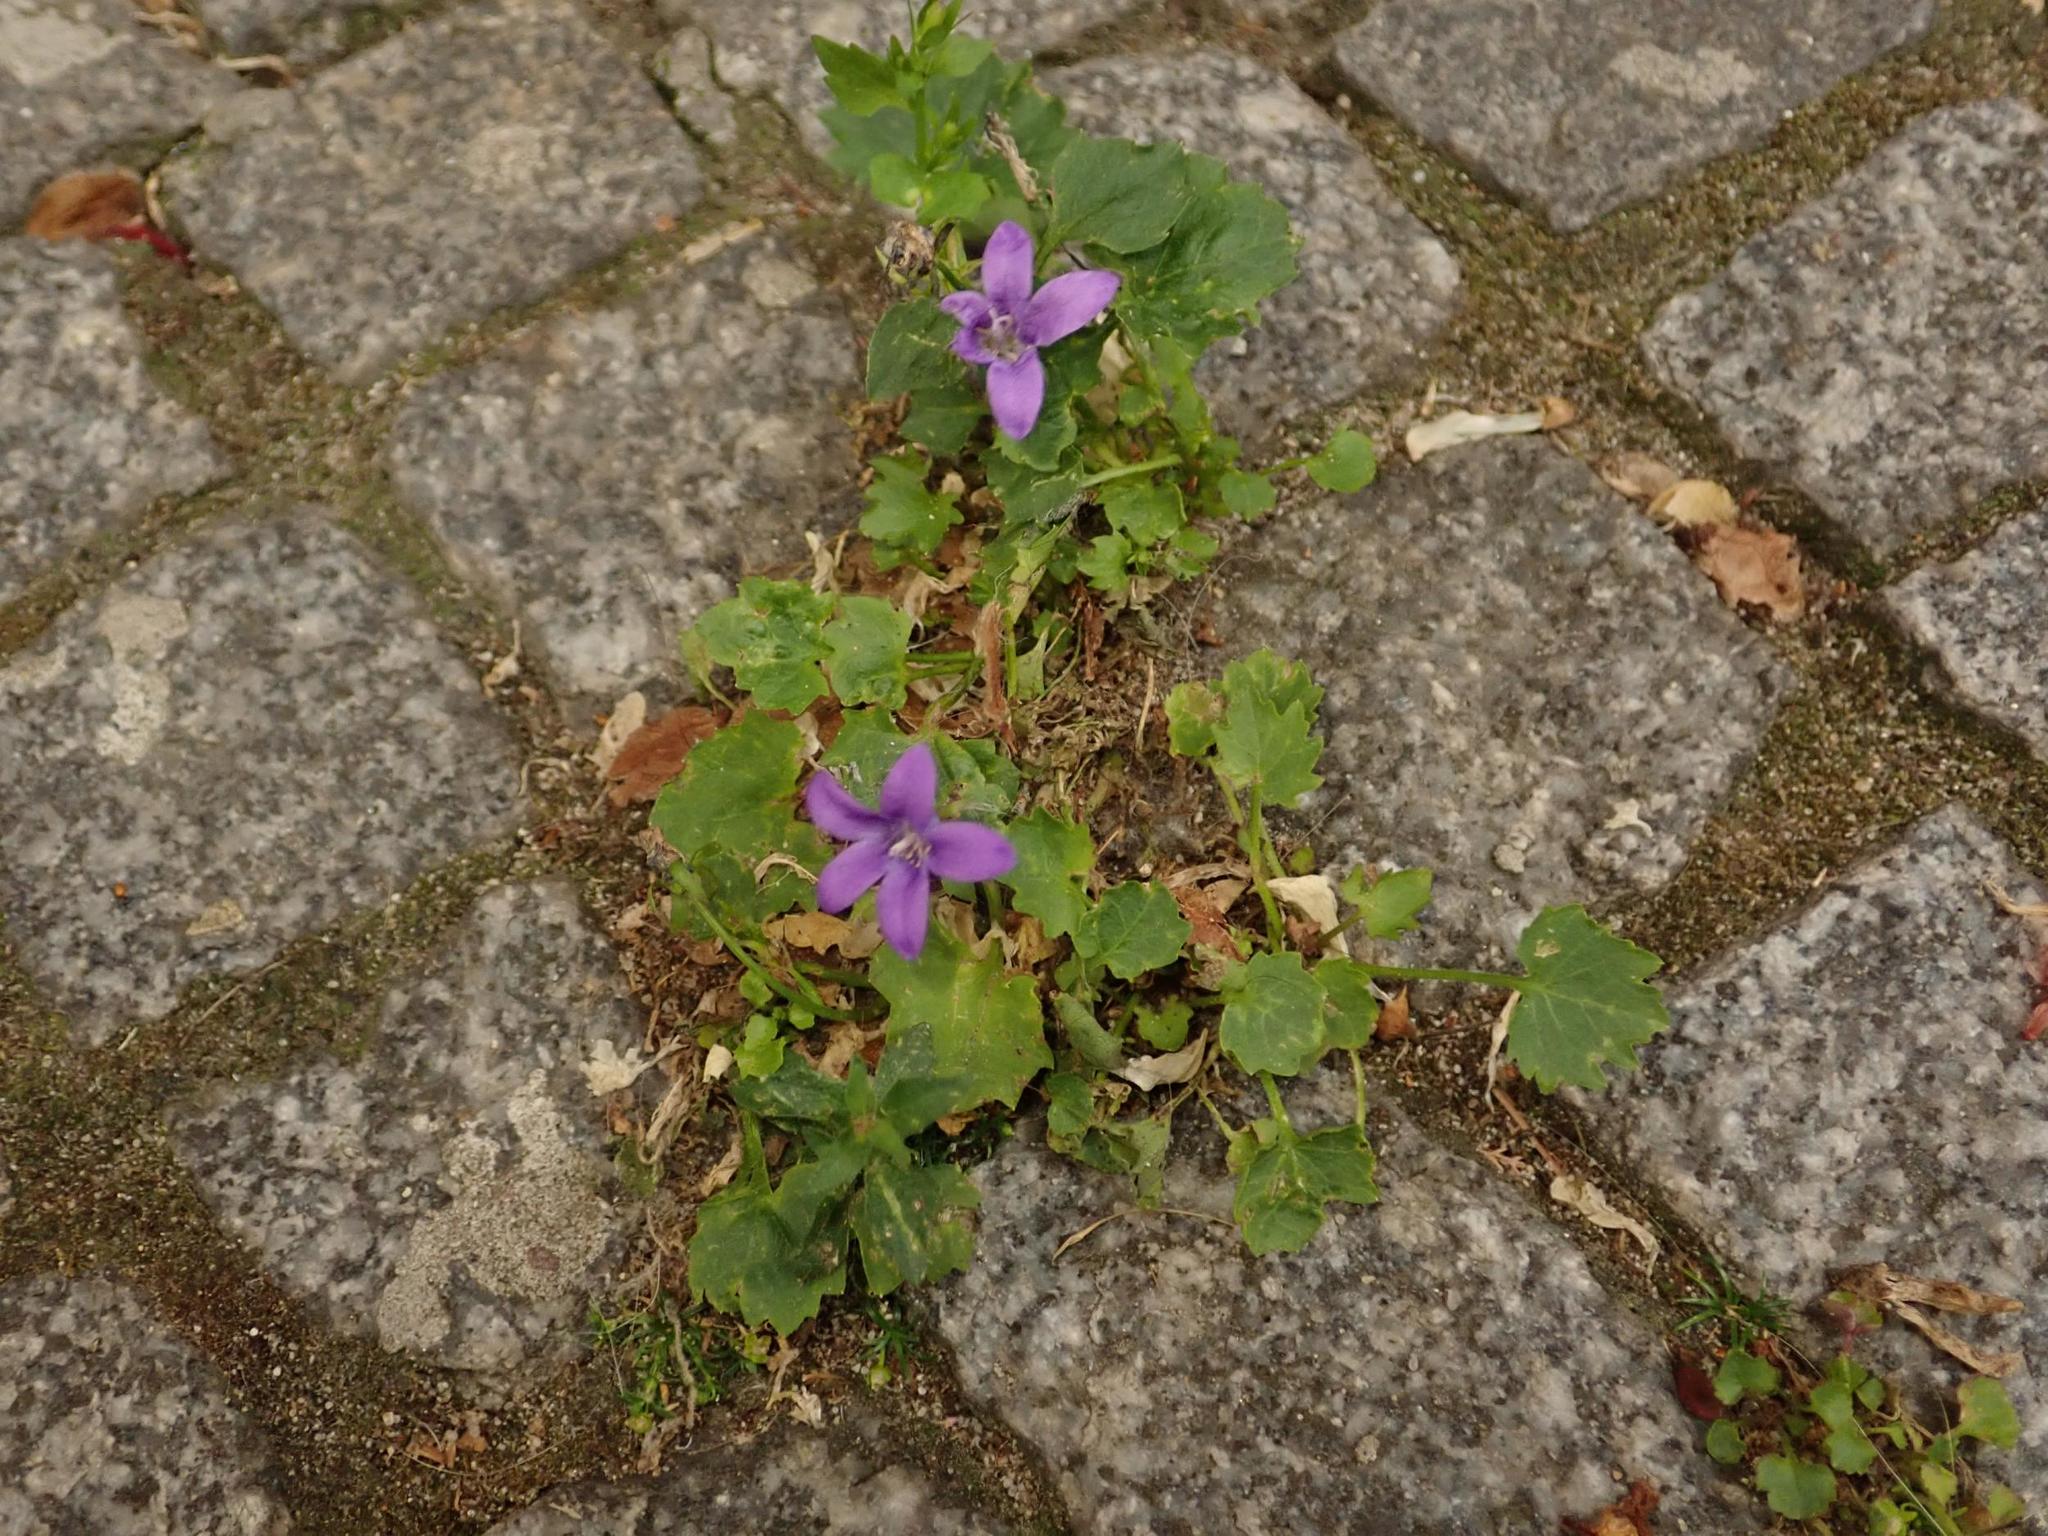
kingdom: Plantae
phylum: Tracheophyta
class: Magnoliopsida
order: Asterales
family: Campanulaceae
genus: Campanula
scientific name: Campanula poscharskyana
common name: Trailing bellflower
